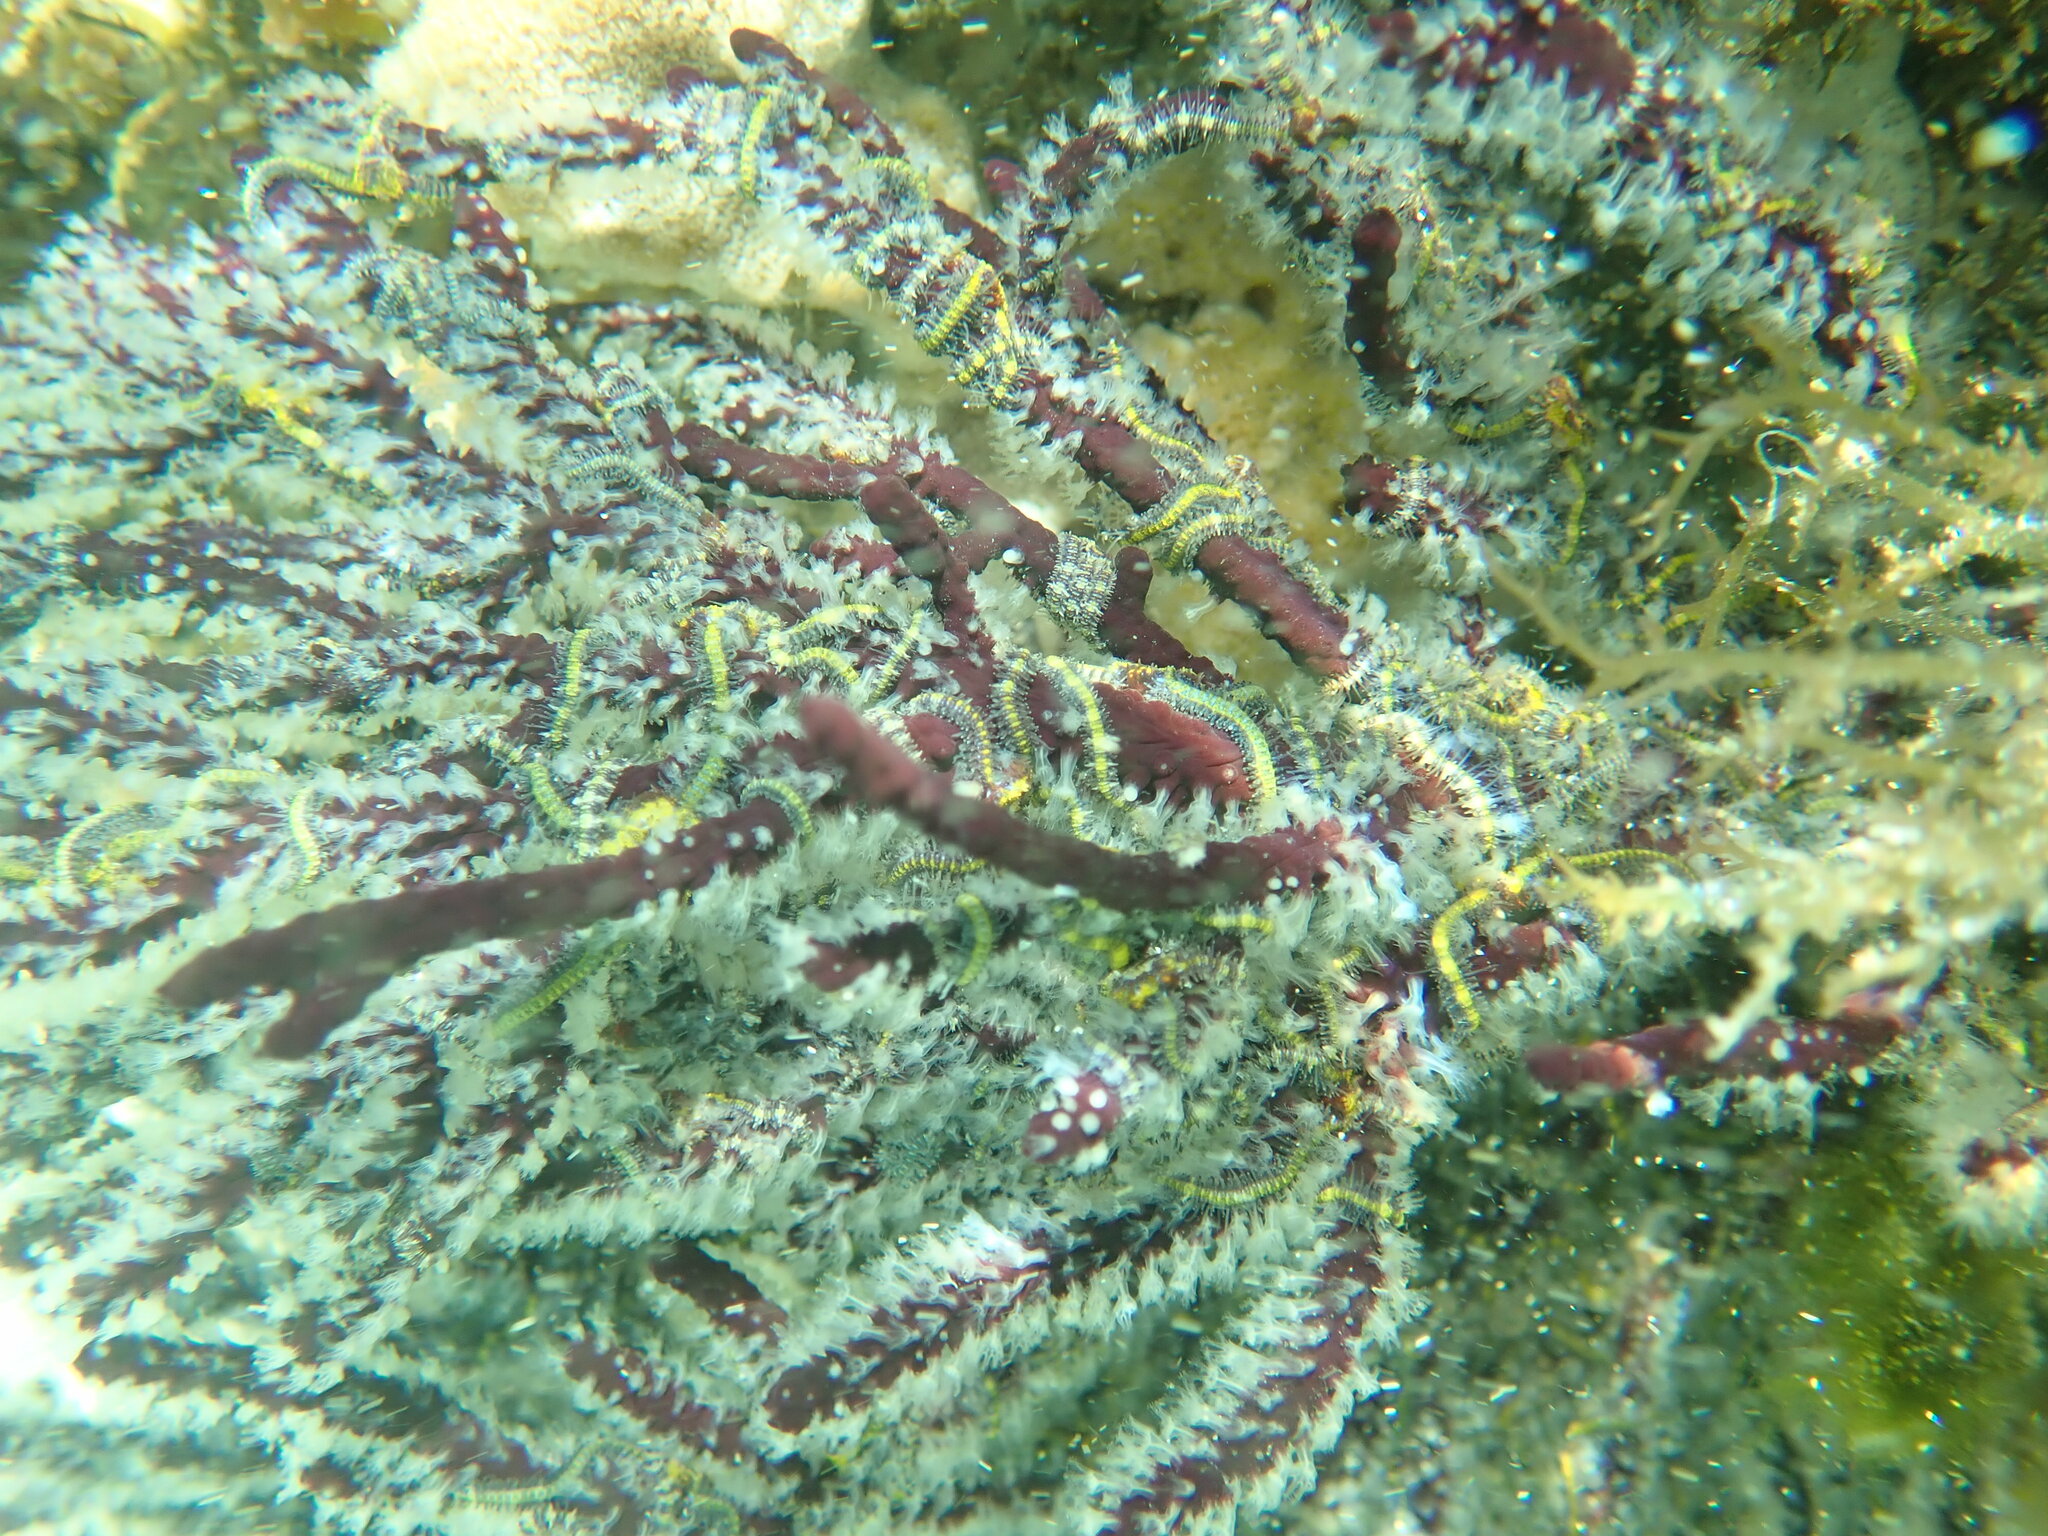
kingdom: Animalia
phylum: Echinodermata
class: Ophiuroidea
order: Amphilepidida
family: Ophiotrichidae
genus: Ophiothela
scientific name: Ophiothela mirabilis
